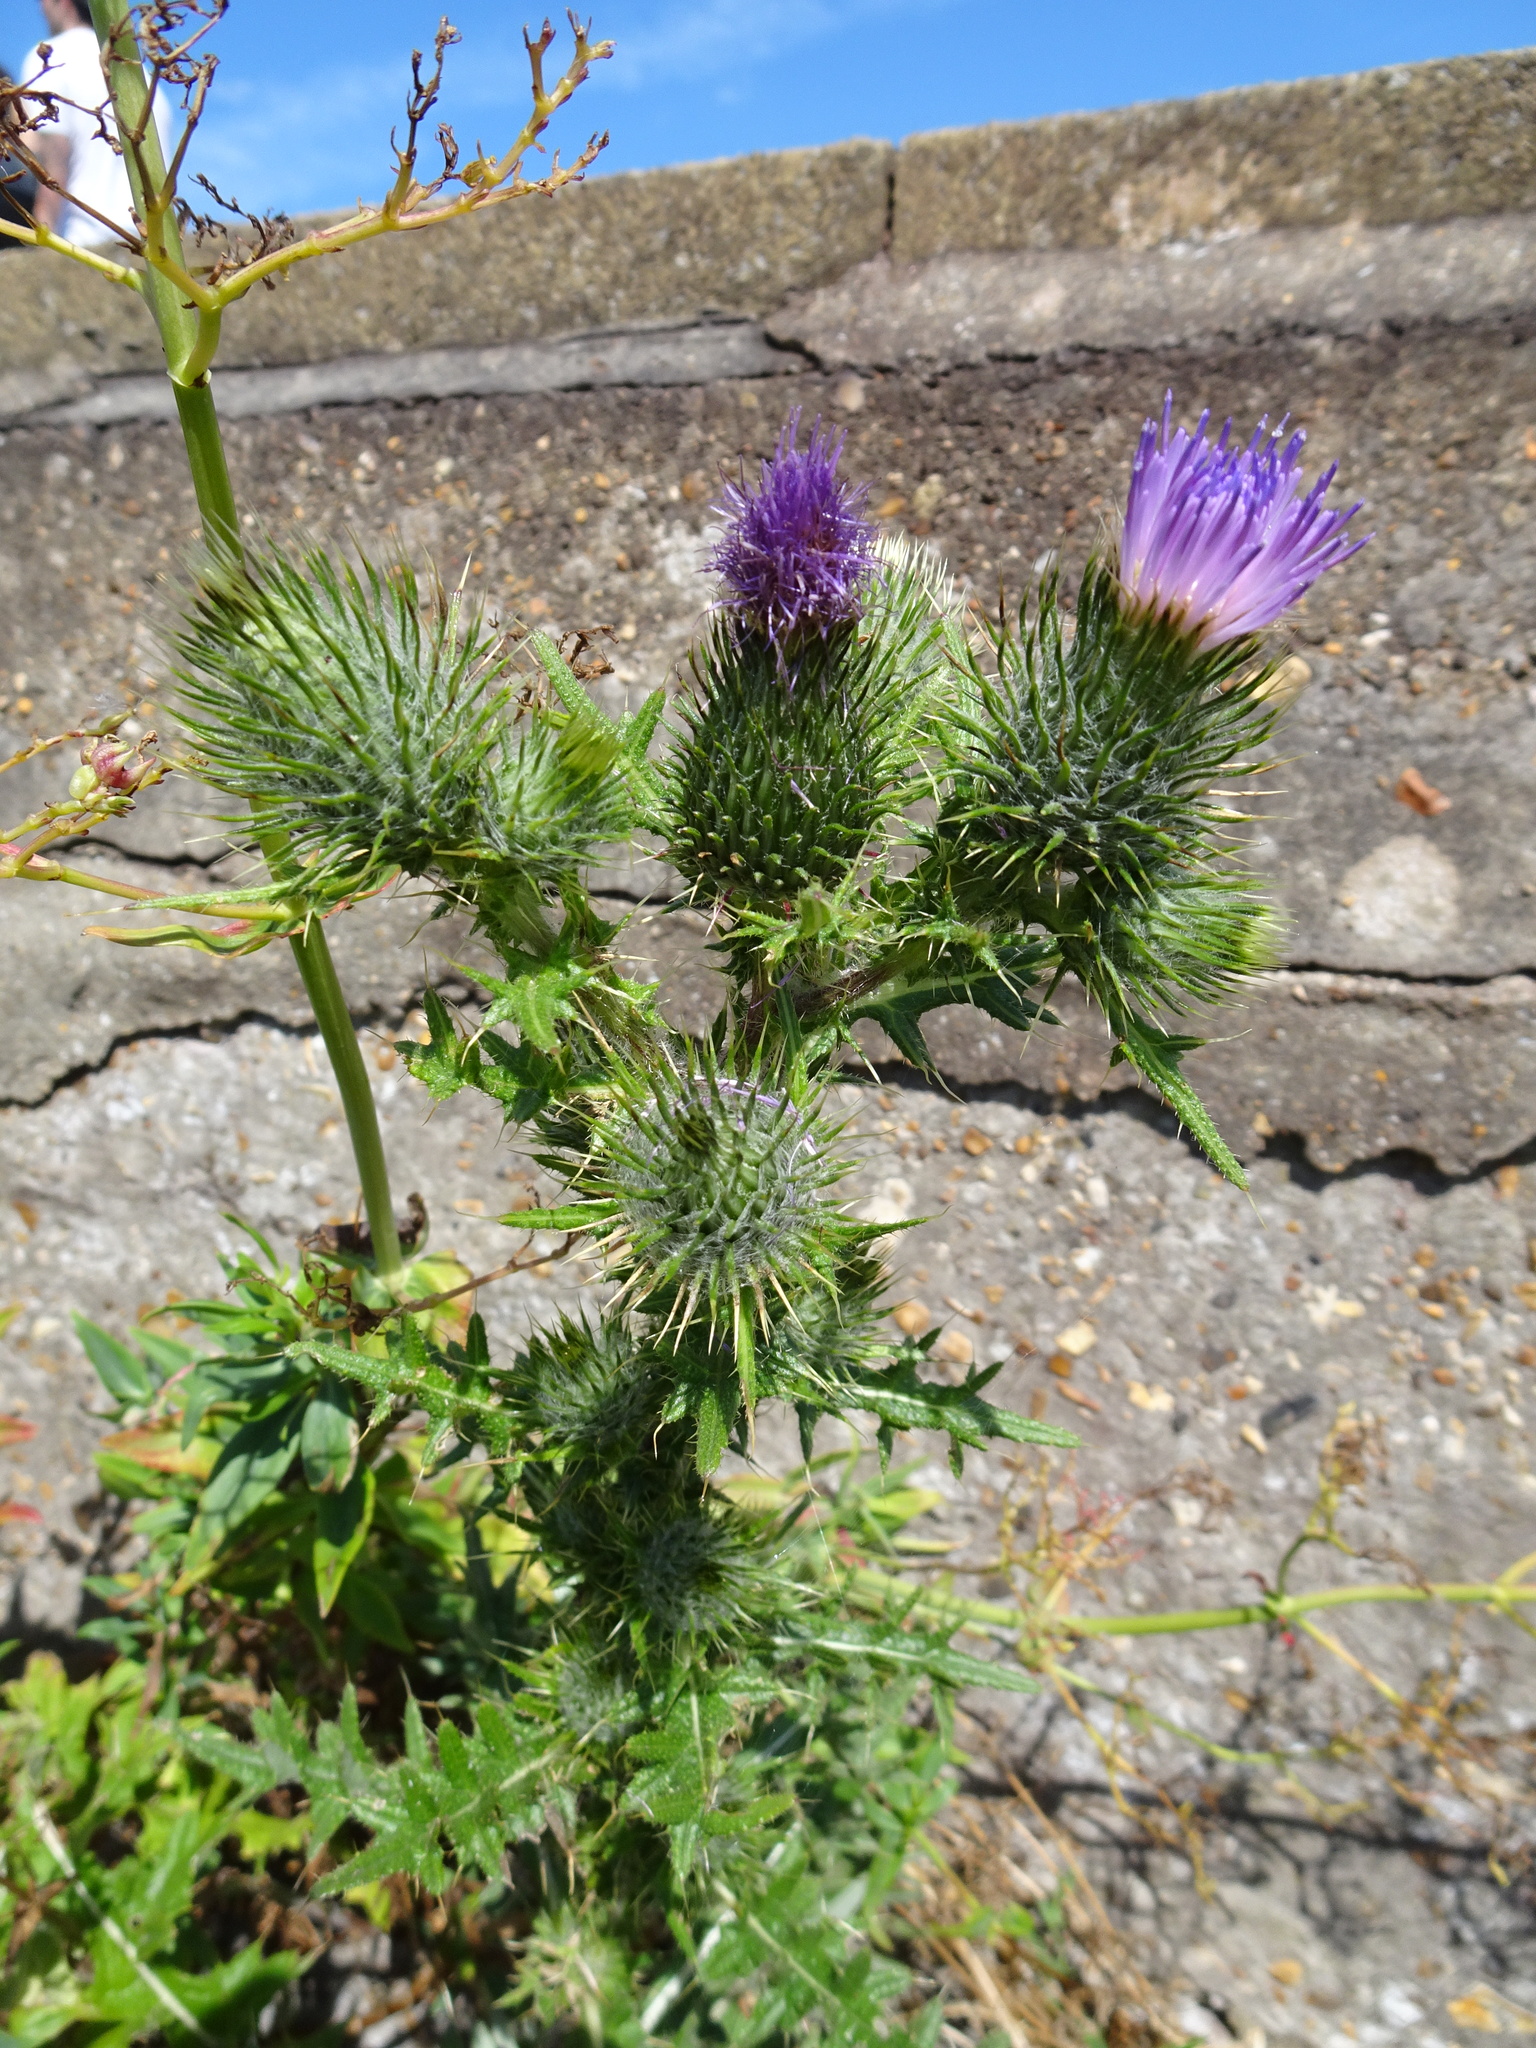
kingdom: Plantae
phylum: Tracheophyta
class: Magnoliopsida
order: Asterales
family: Asteraceae
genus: Cirsium
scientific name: Cirsium vulgare
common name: Bull thistle
